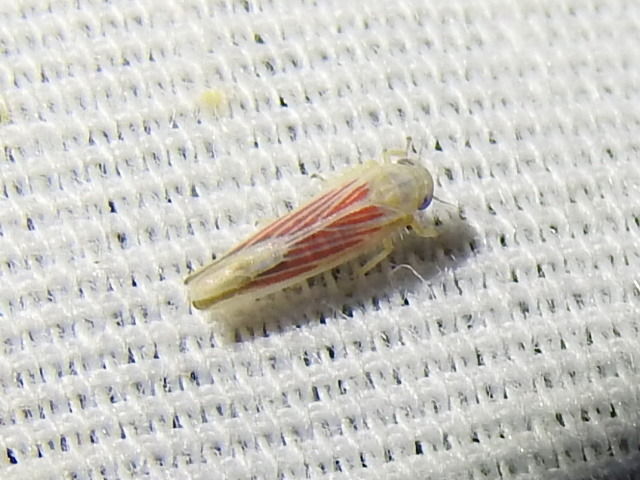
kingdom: Animalia
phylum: Arthropoda
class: Insecta
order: Hemiptera
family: Cicadellidae
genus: Balclutha
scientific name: Balclutha rubrostriata
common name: Red-streaked leafhopper
